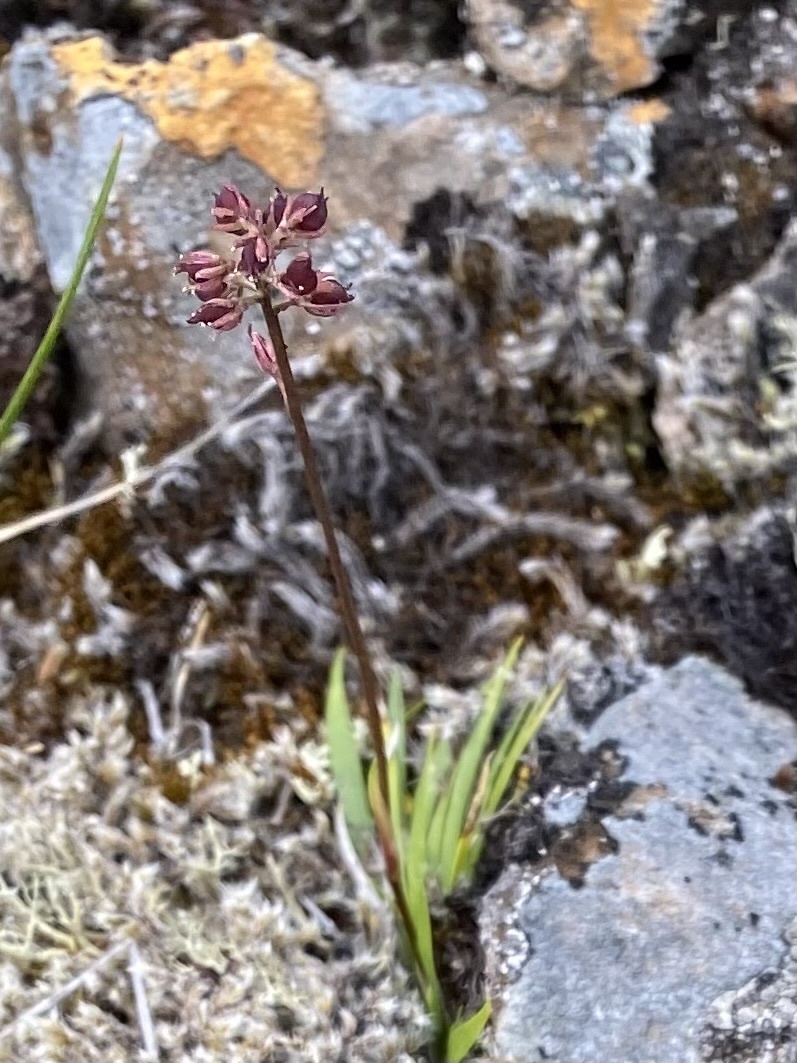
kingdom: Plantae
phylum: Tracheophyta
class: Liliopsida
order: Alismatales
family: Tofieldiaceae
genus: Tofieldia
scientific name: Tofieldia coccinea
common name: Northern false asphodel
